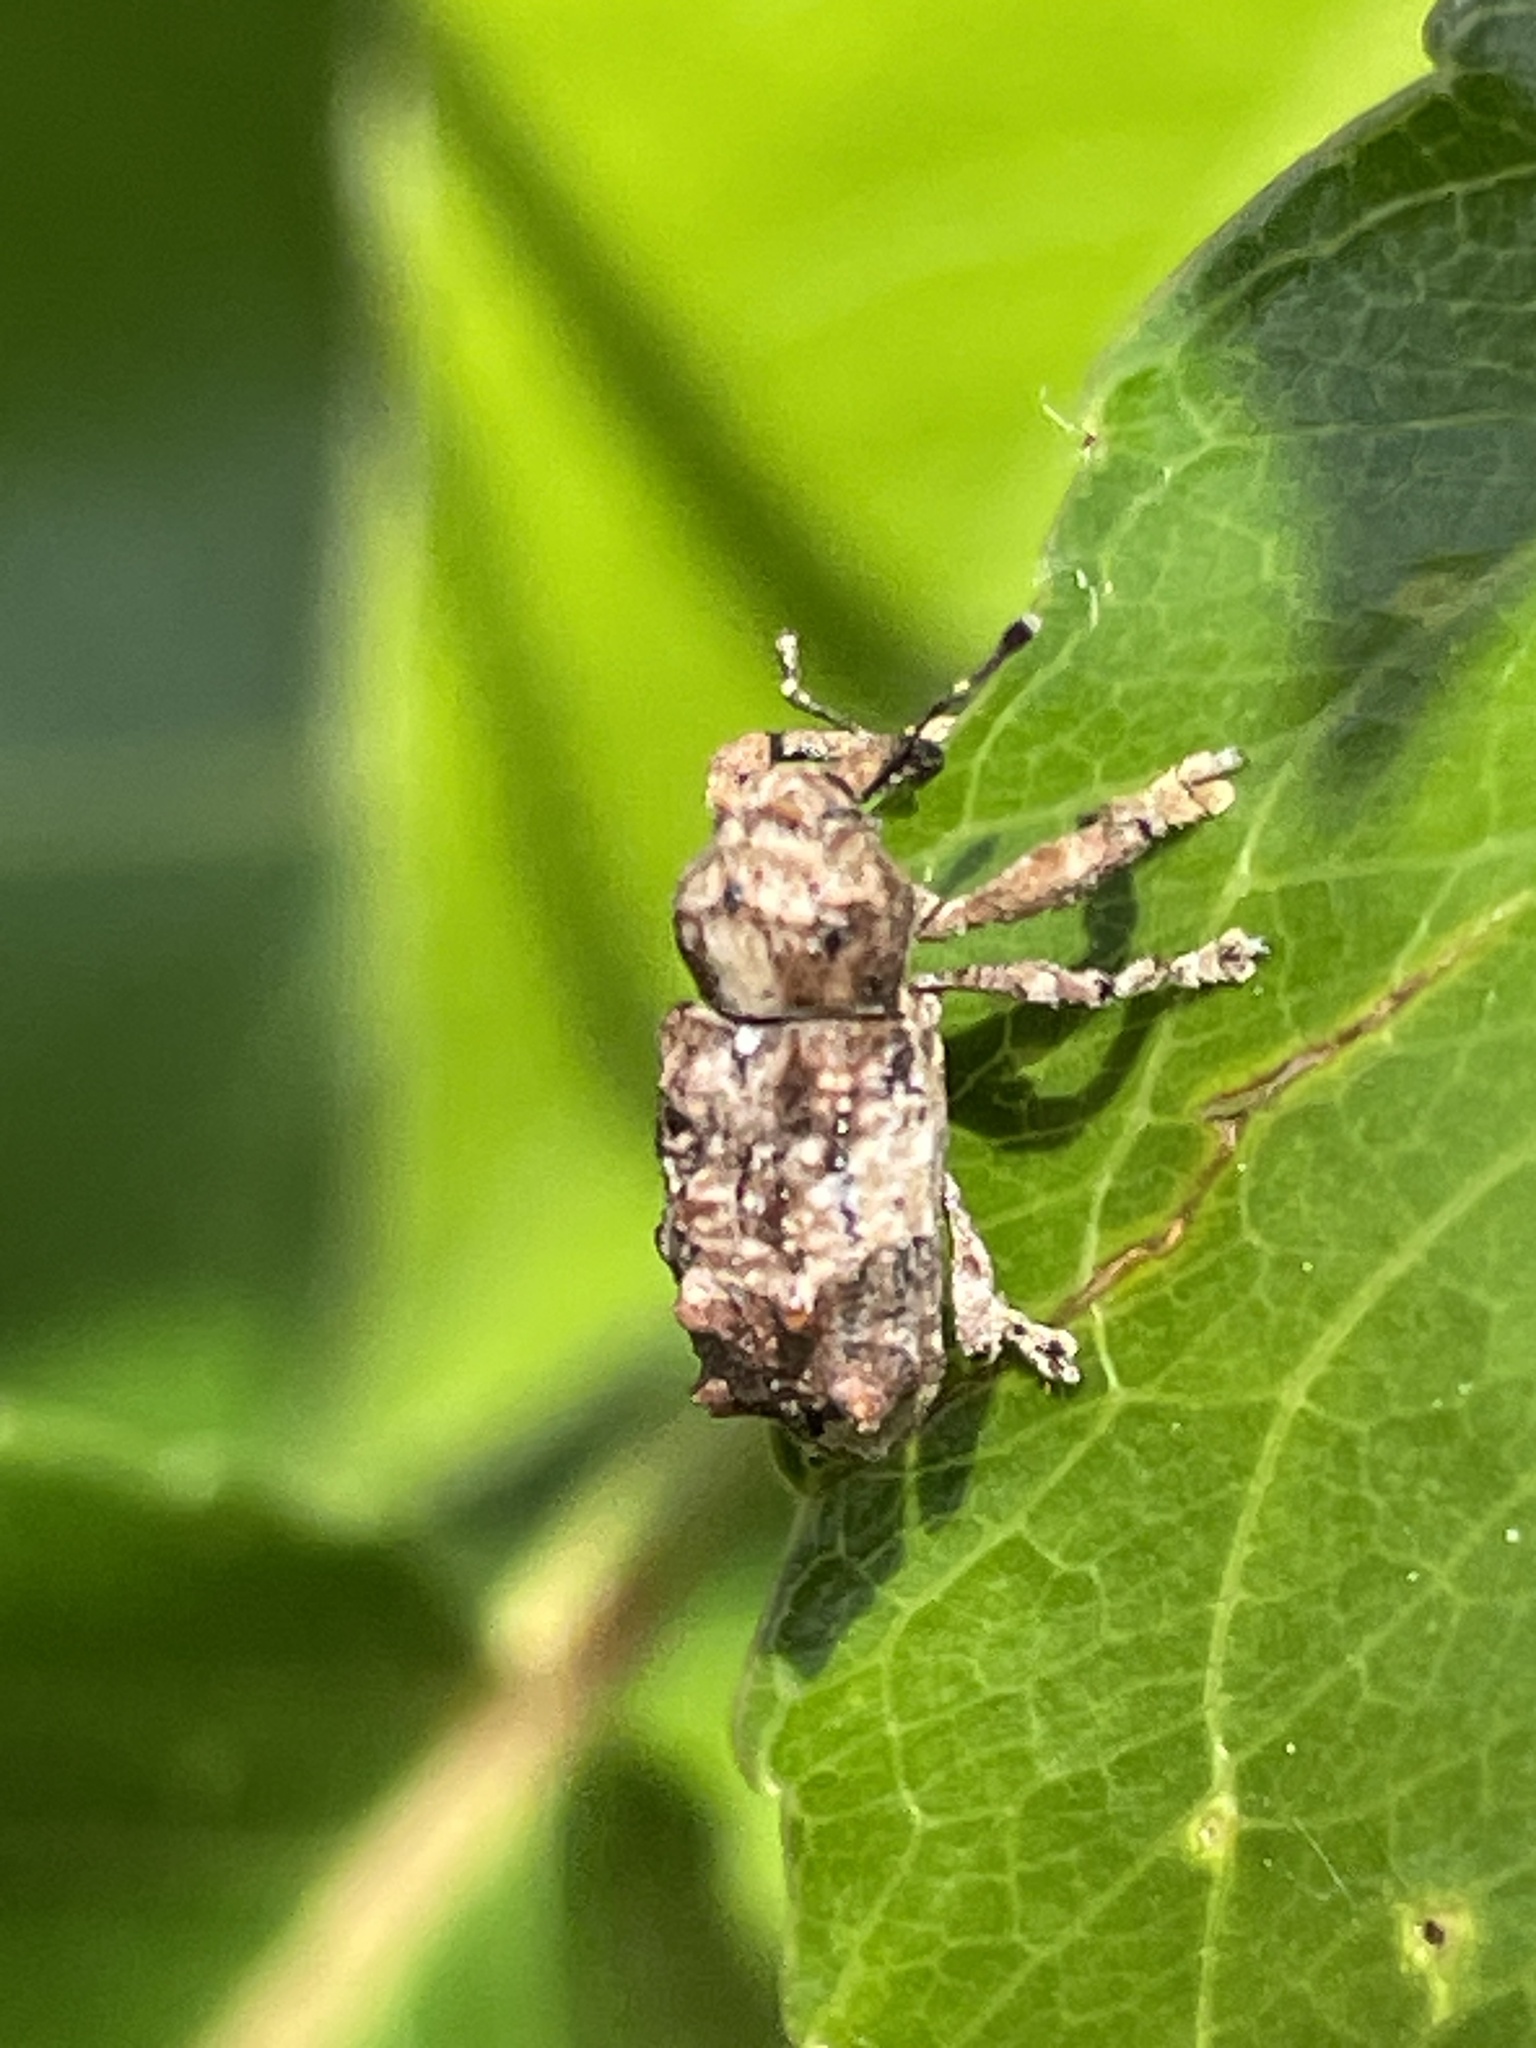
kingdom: Animalia
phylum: Arthropoda
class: Insecta
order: Coleoptera
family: Curculionidae
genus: Orthorhinus
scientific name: Orthorhinus klugii
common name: Vine weevil
